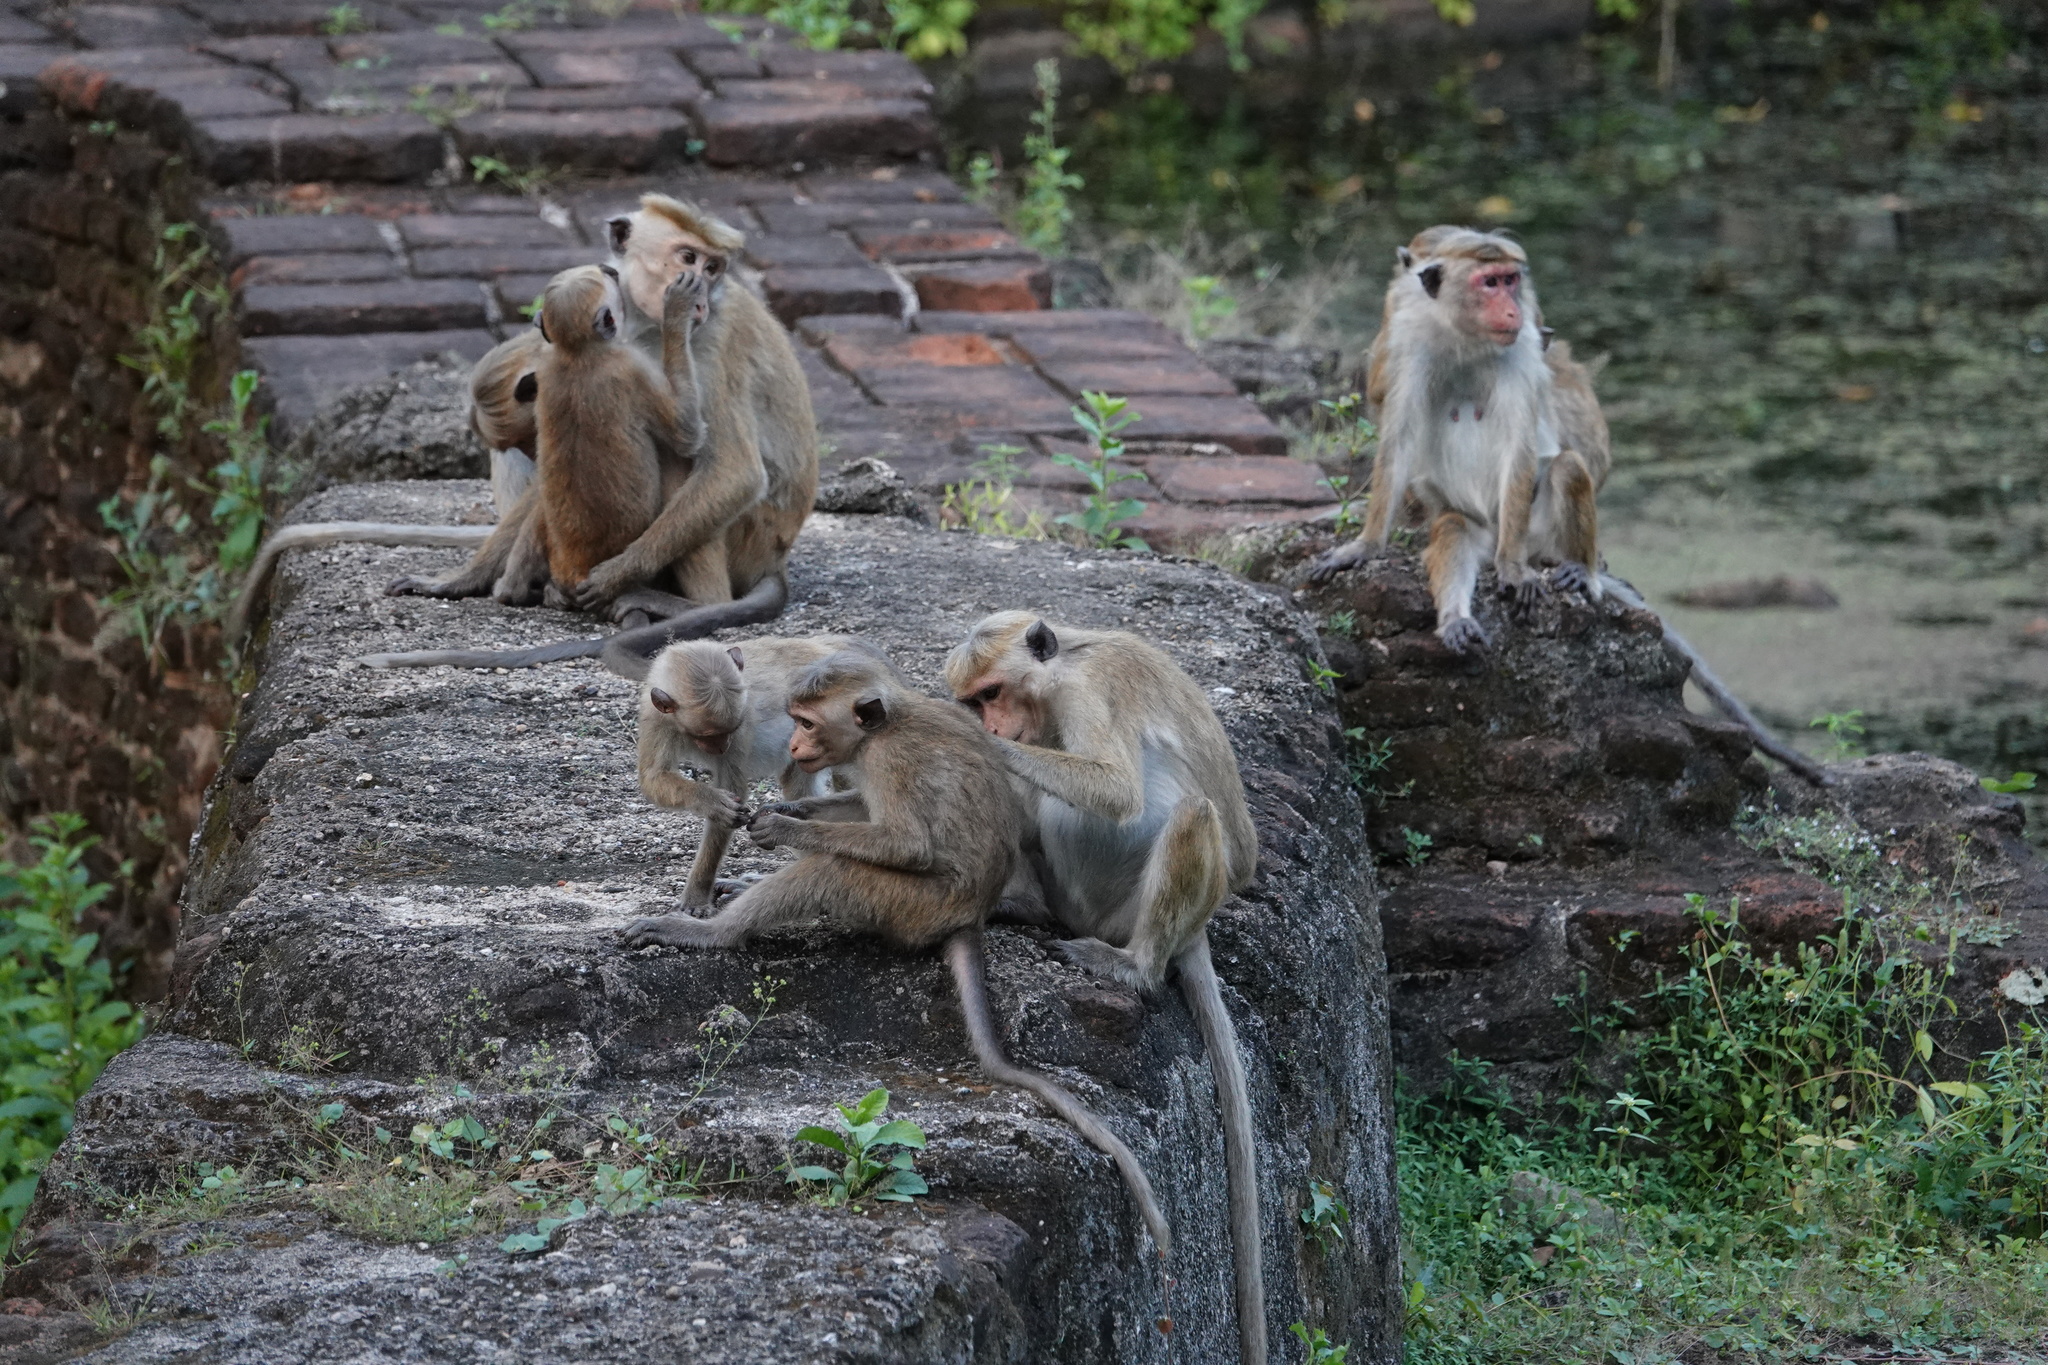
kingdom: Animalia
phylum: Chordata
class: Mammalia
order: Primates
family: Cercopithecidae
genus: Macaca
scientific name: Macaca sinica
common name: Toque macaque
